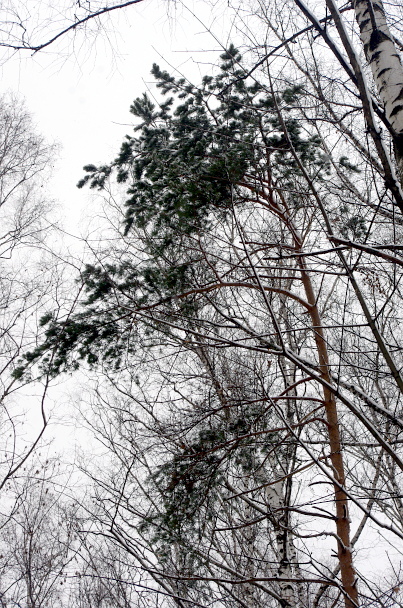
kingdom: Plantae
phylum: Tracheophyta
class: Pinopsida
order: Pinales
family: Pinaceae
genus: Pinus
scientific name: Pinus sylvestris
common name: Scots pine
